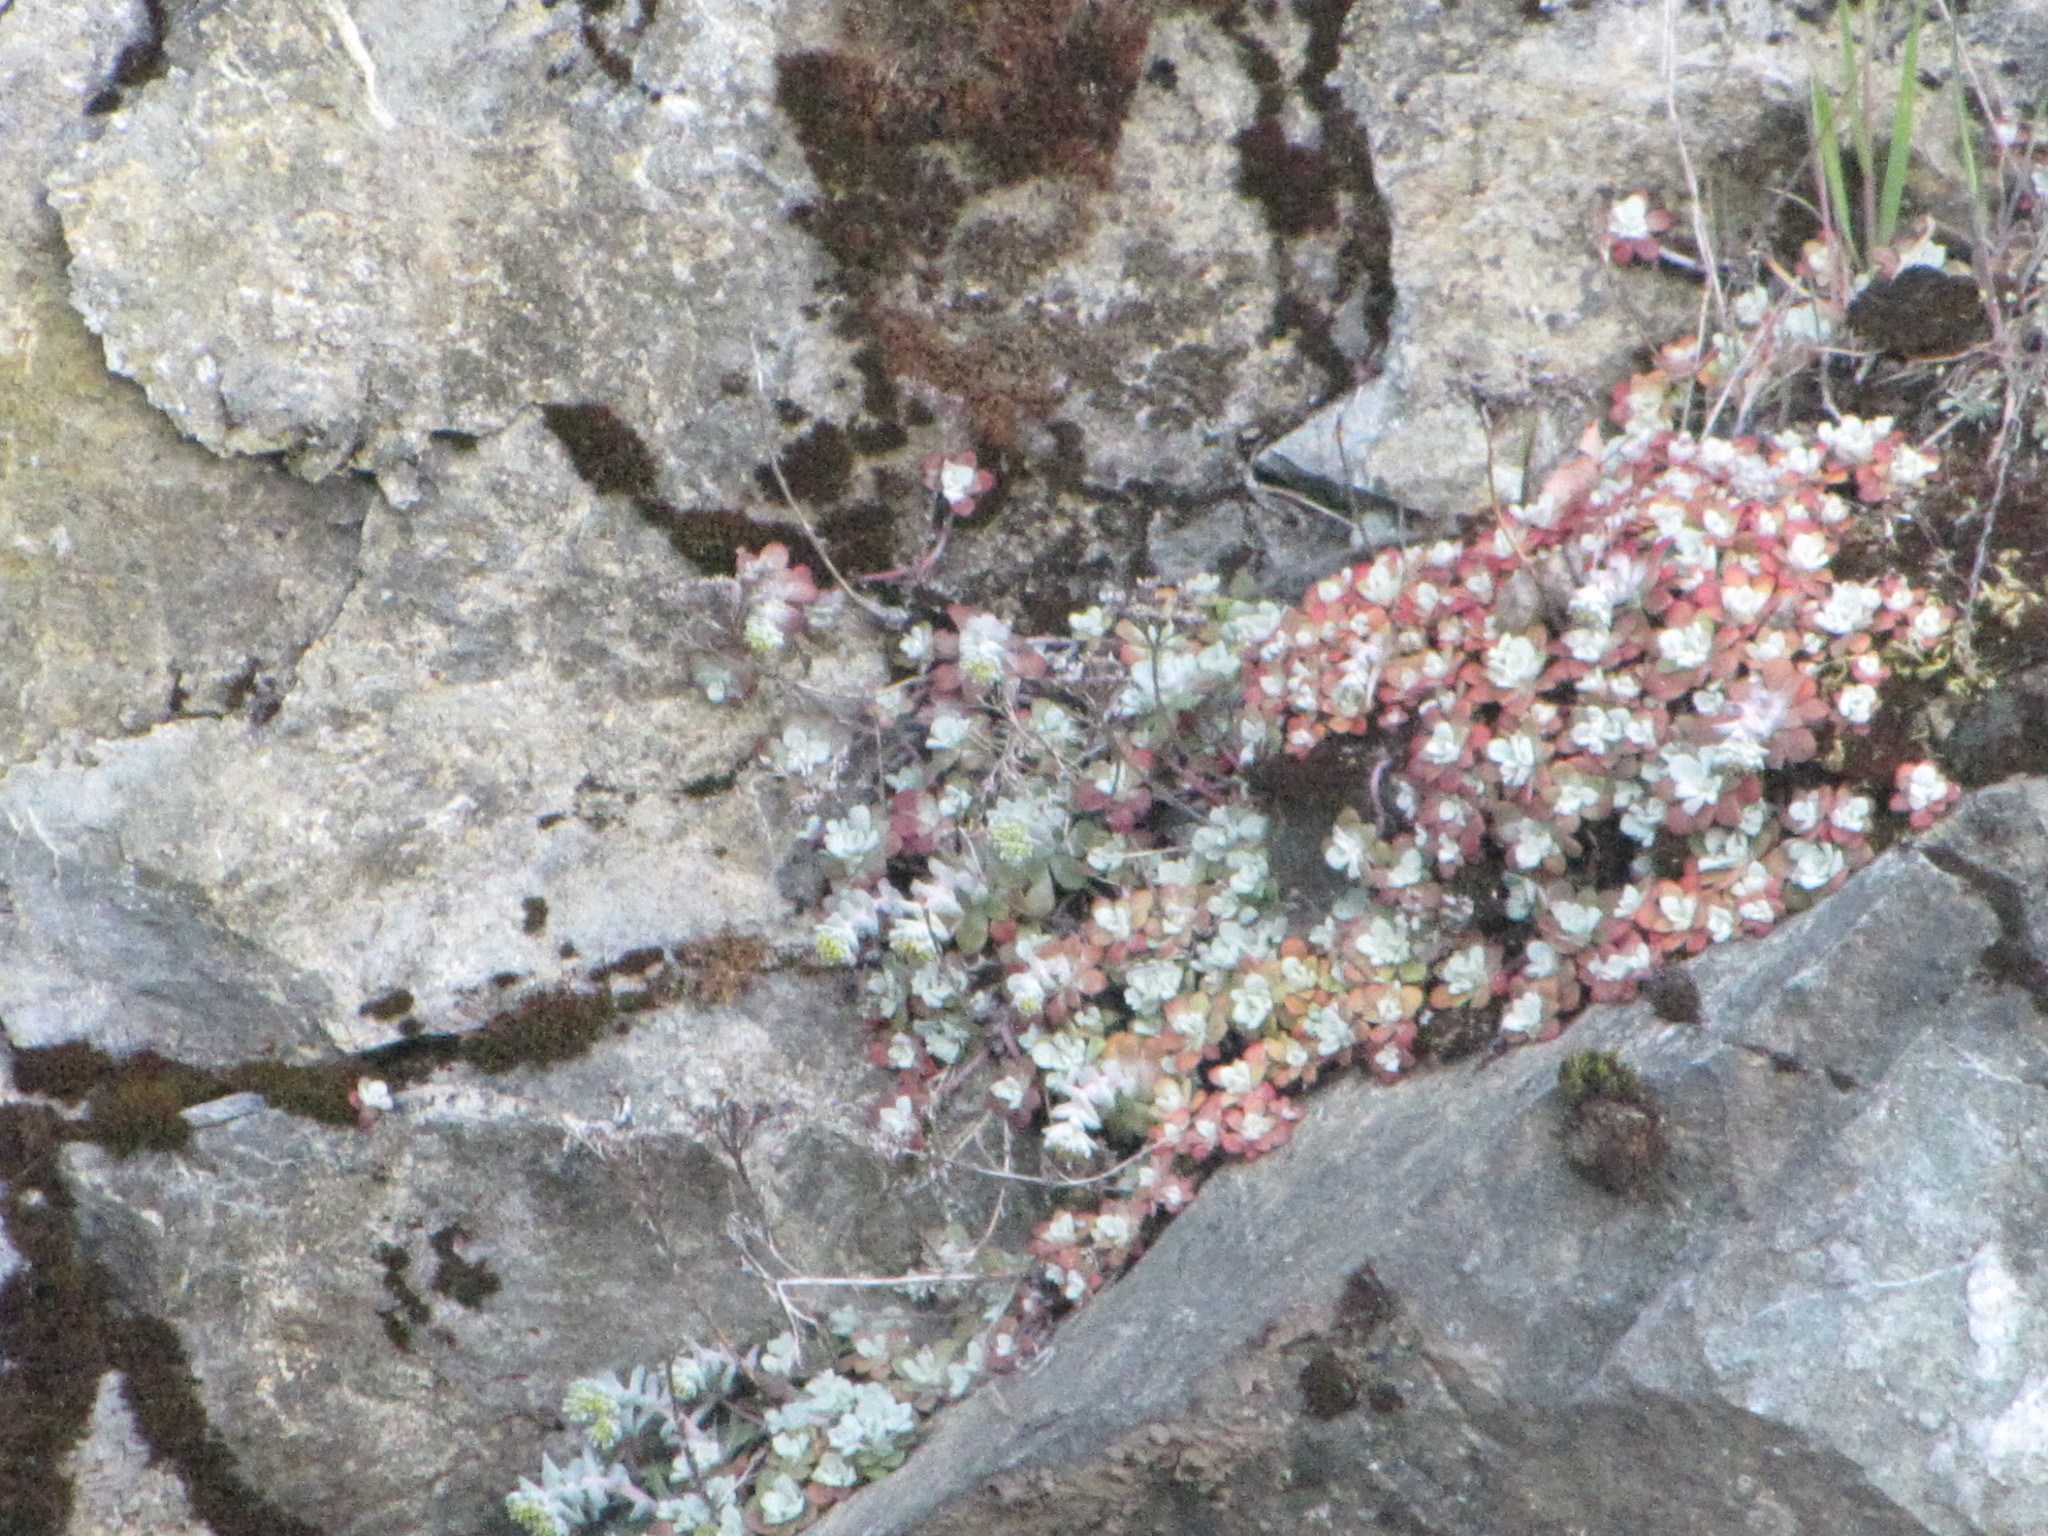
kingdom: Plantae
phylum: Tracheophyta
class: Magnoliopsida
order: Saxifragales
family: Crassulaceae
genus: Sedum
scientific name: Sedum spathulifolium
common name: Colorado stonecrop
